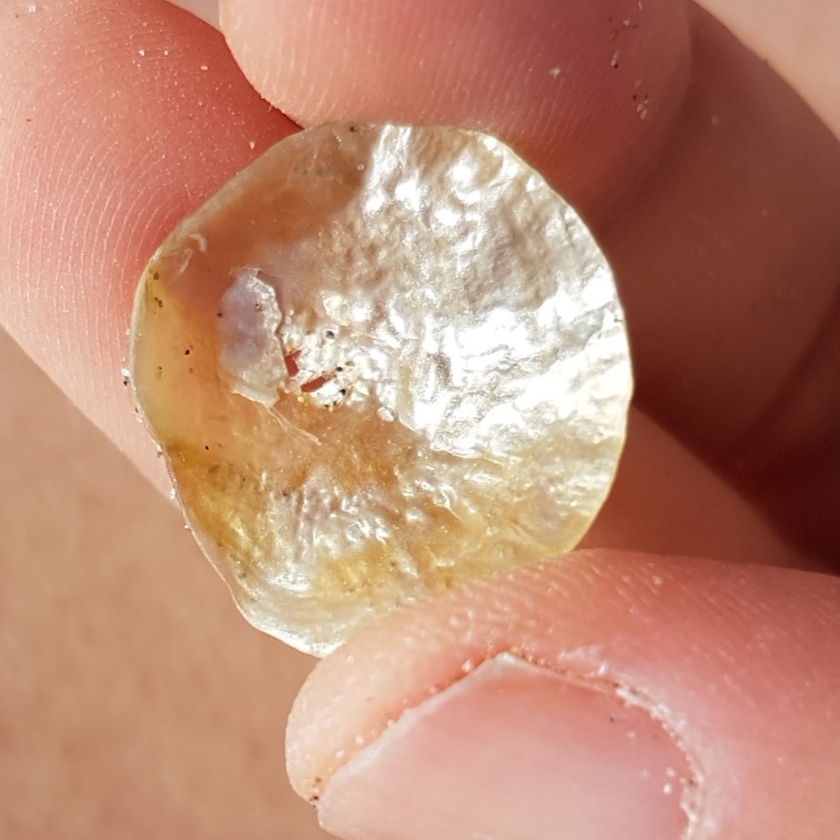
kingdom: Animalia
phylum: Mollusca
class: Bivalvia
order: Pectinida
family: Anomiidae
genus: Anomia
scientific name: Anomia ephippium
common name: Saddle oyster
